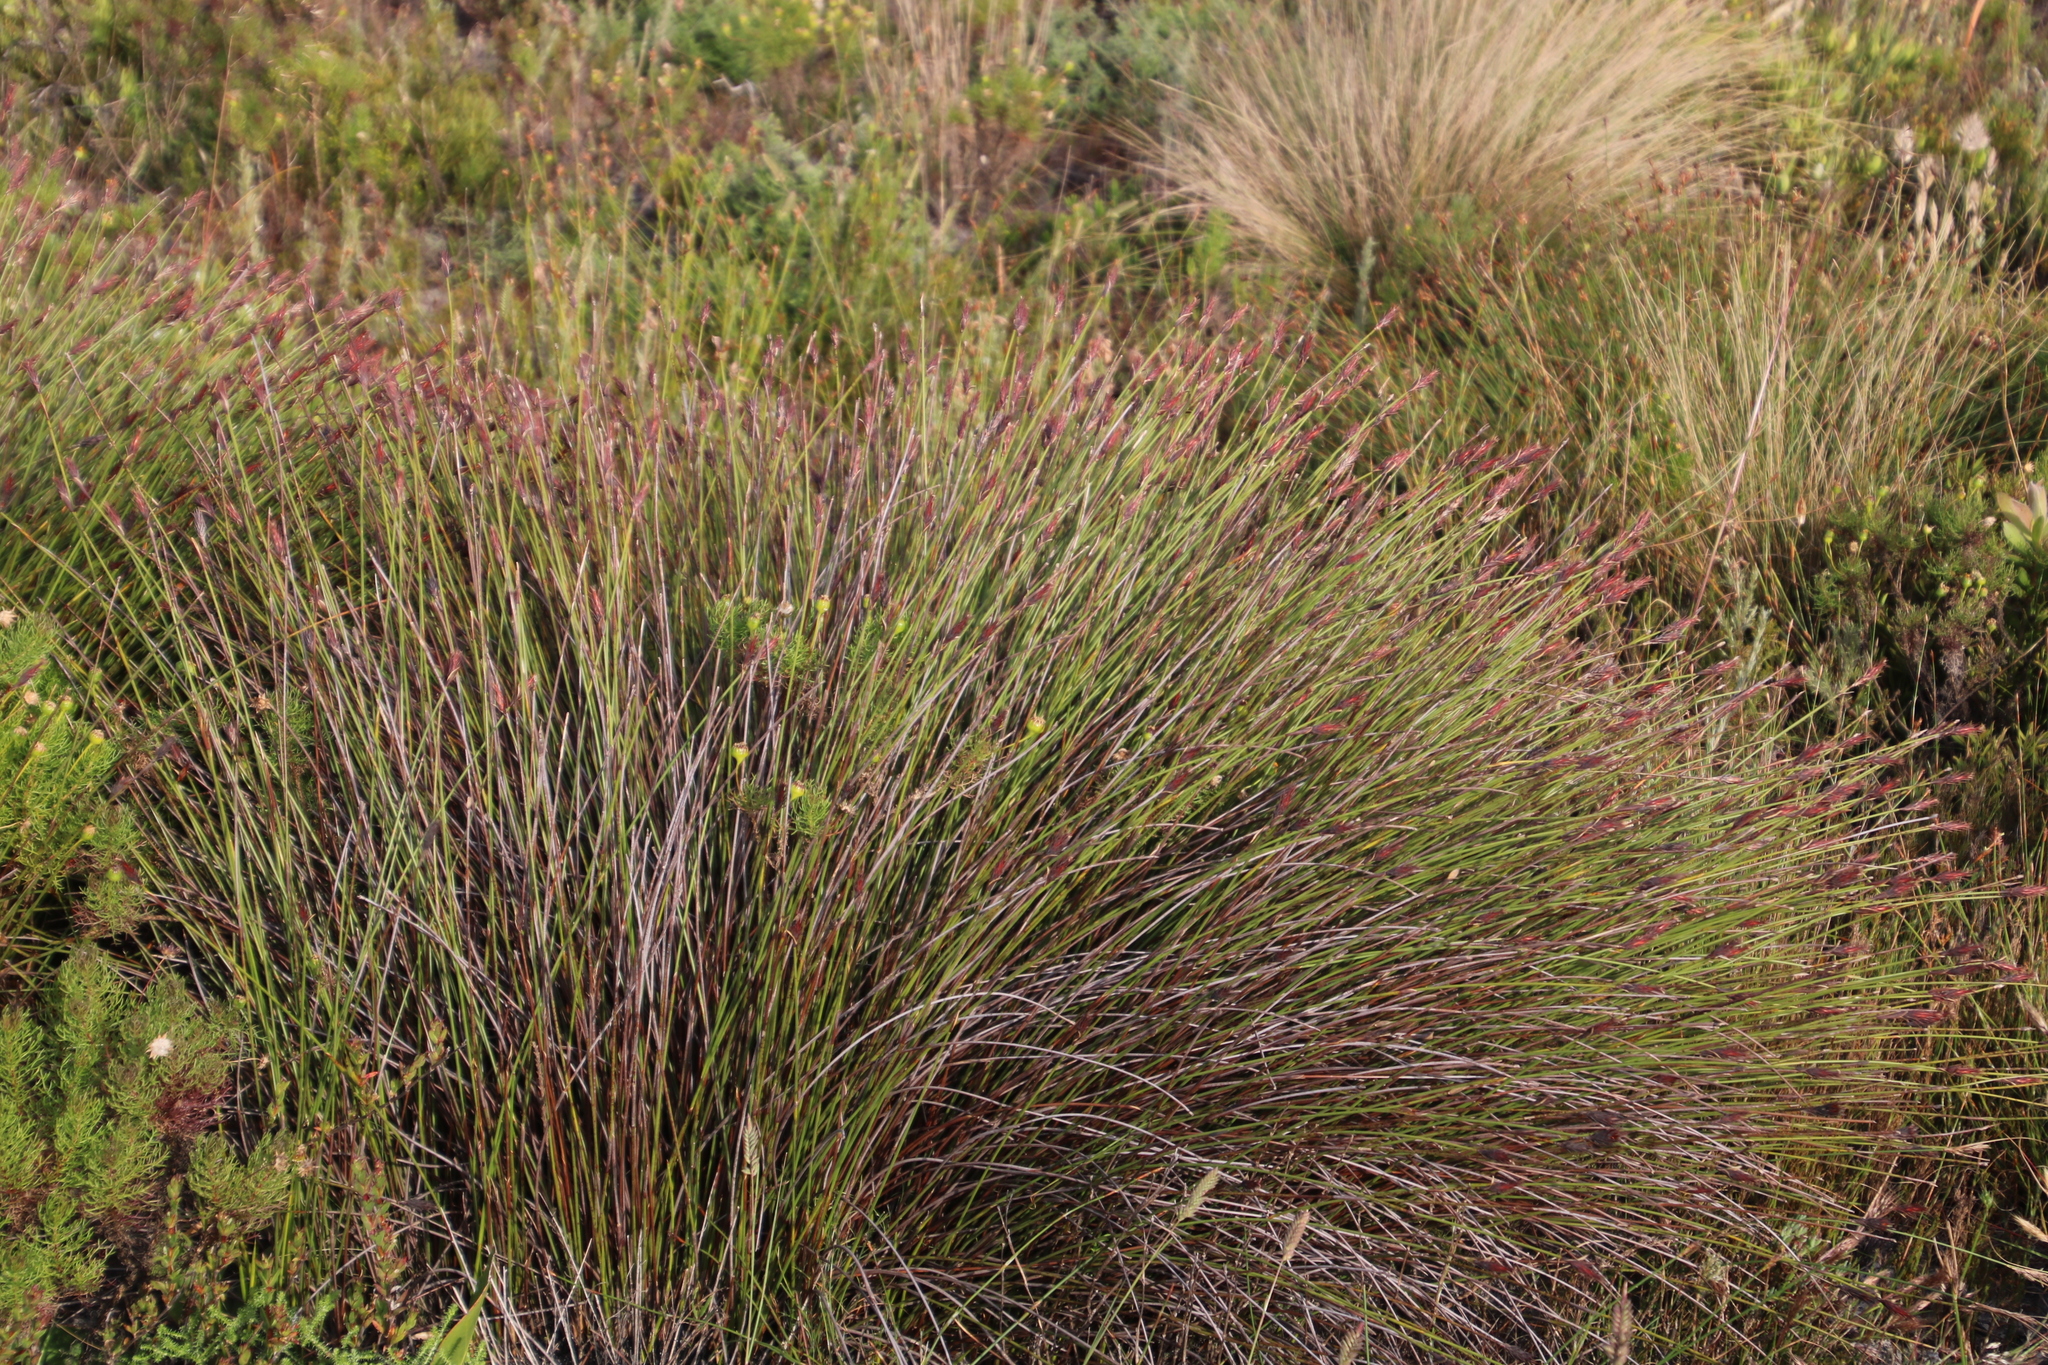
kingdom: Plantae
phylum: Tracheophyta
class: Liliopsida
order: Poales
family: Restionaceae
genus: Hypodiscus
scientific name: Hypodiscus aristatus
